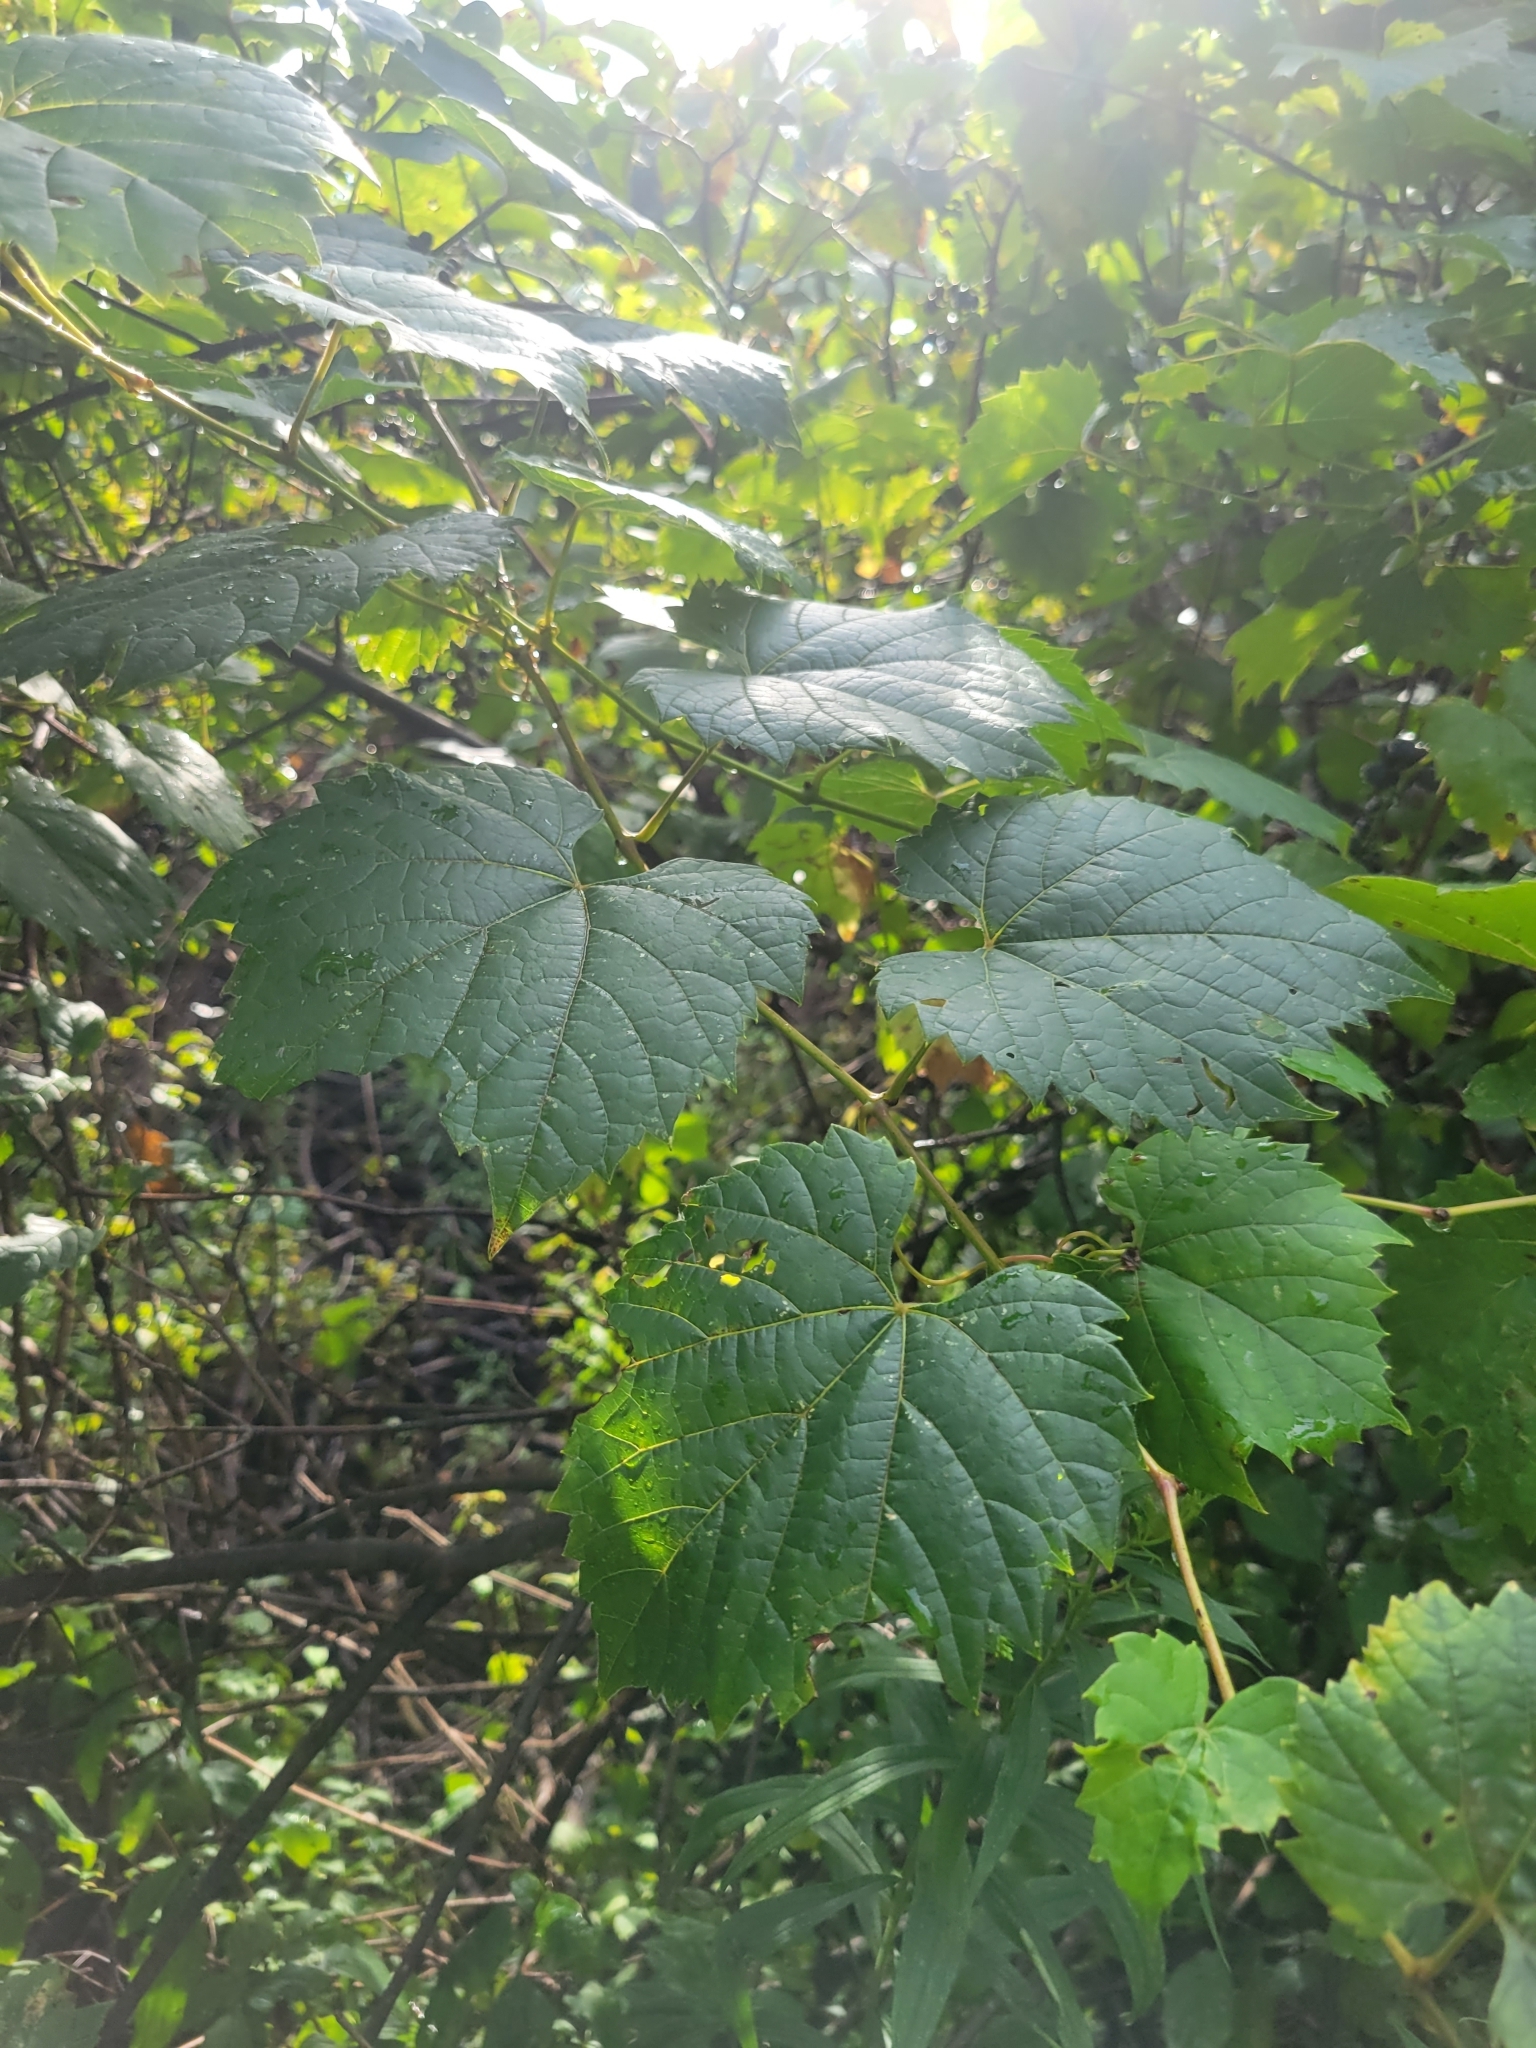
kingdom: Plantae
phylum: Tracheophyta
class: Magnoliopsida
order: Vitales
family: Vitaceae
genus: Vitis
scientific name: Vitis riparia
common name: Frost grape
